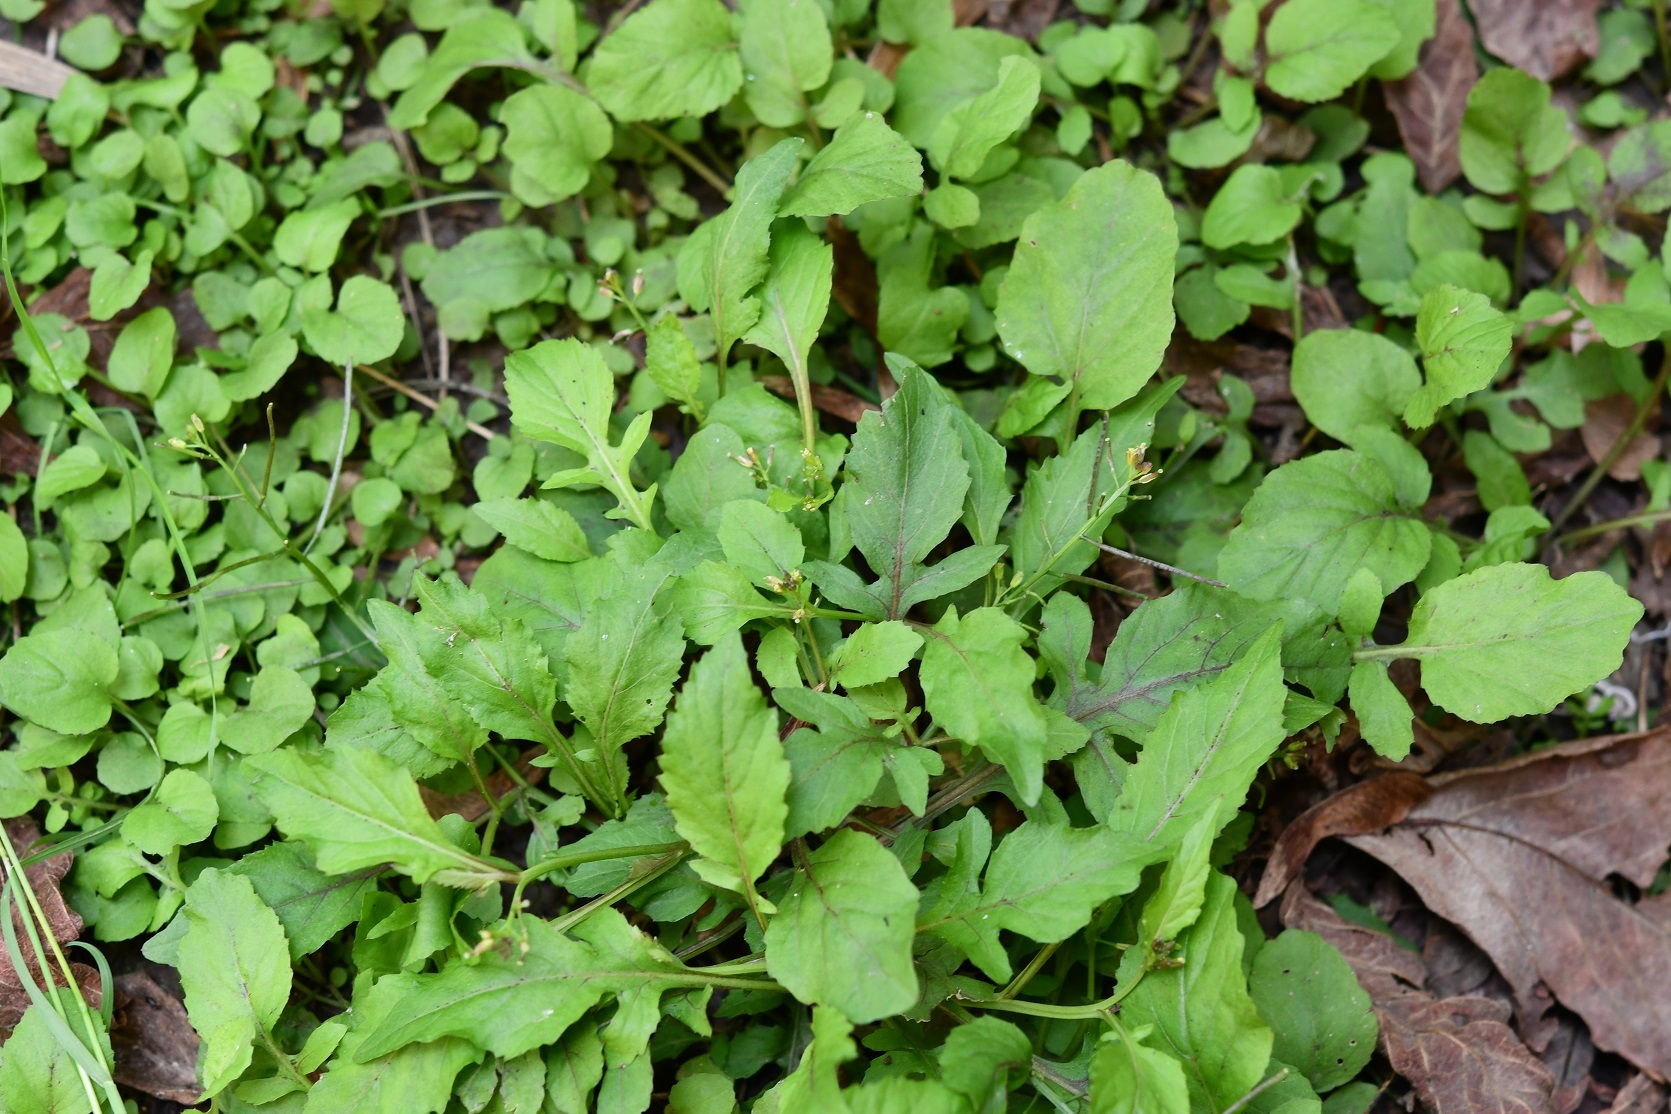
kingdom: Plantae
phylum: Tracheophyta
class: Magnoliopsida
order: Brassicales
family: Brassicaceae
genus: Rorippa
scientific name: Rorippa dubia
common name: Variableleaf yellowcress
